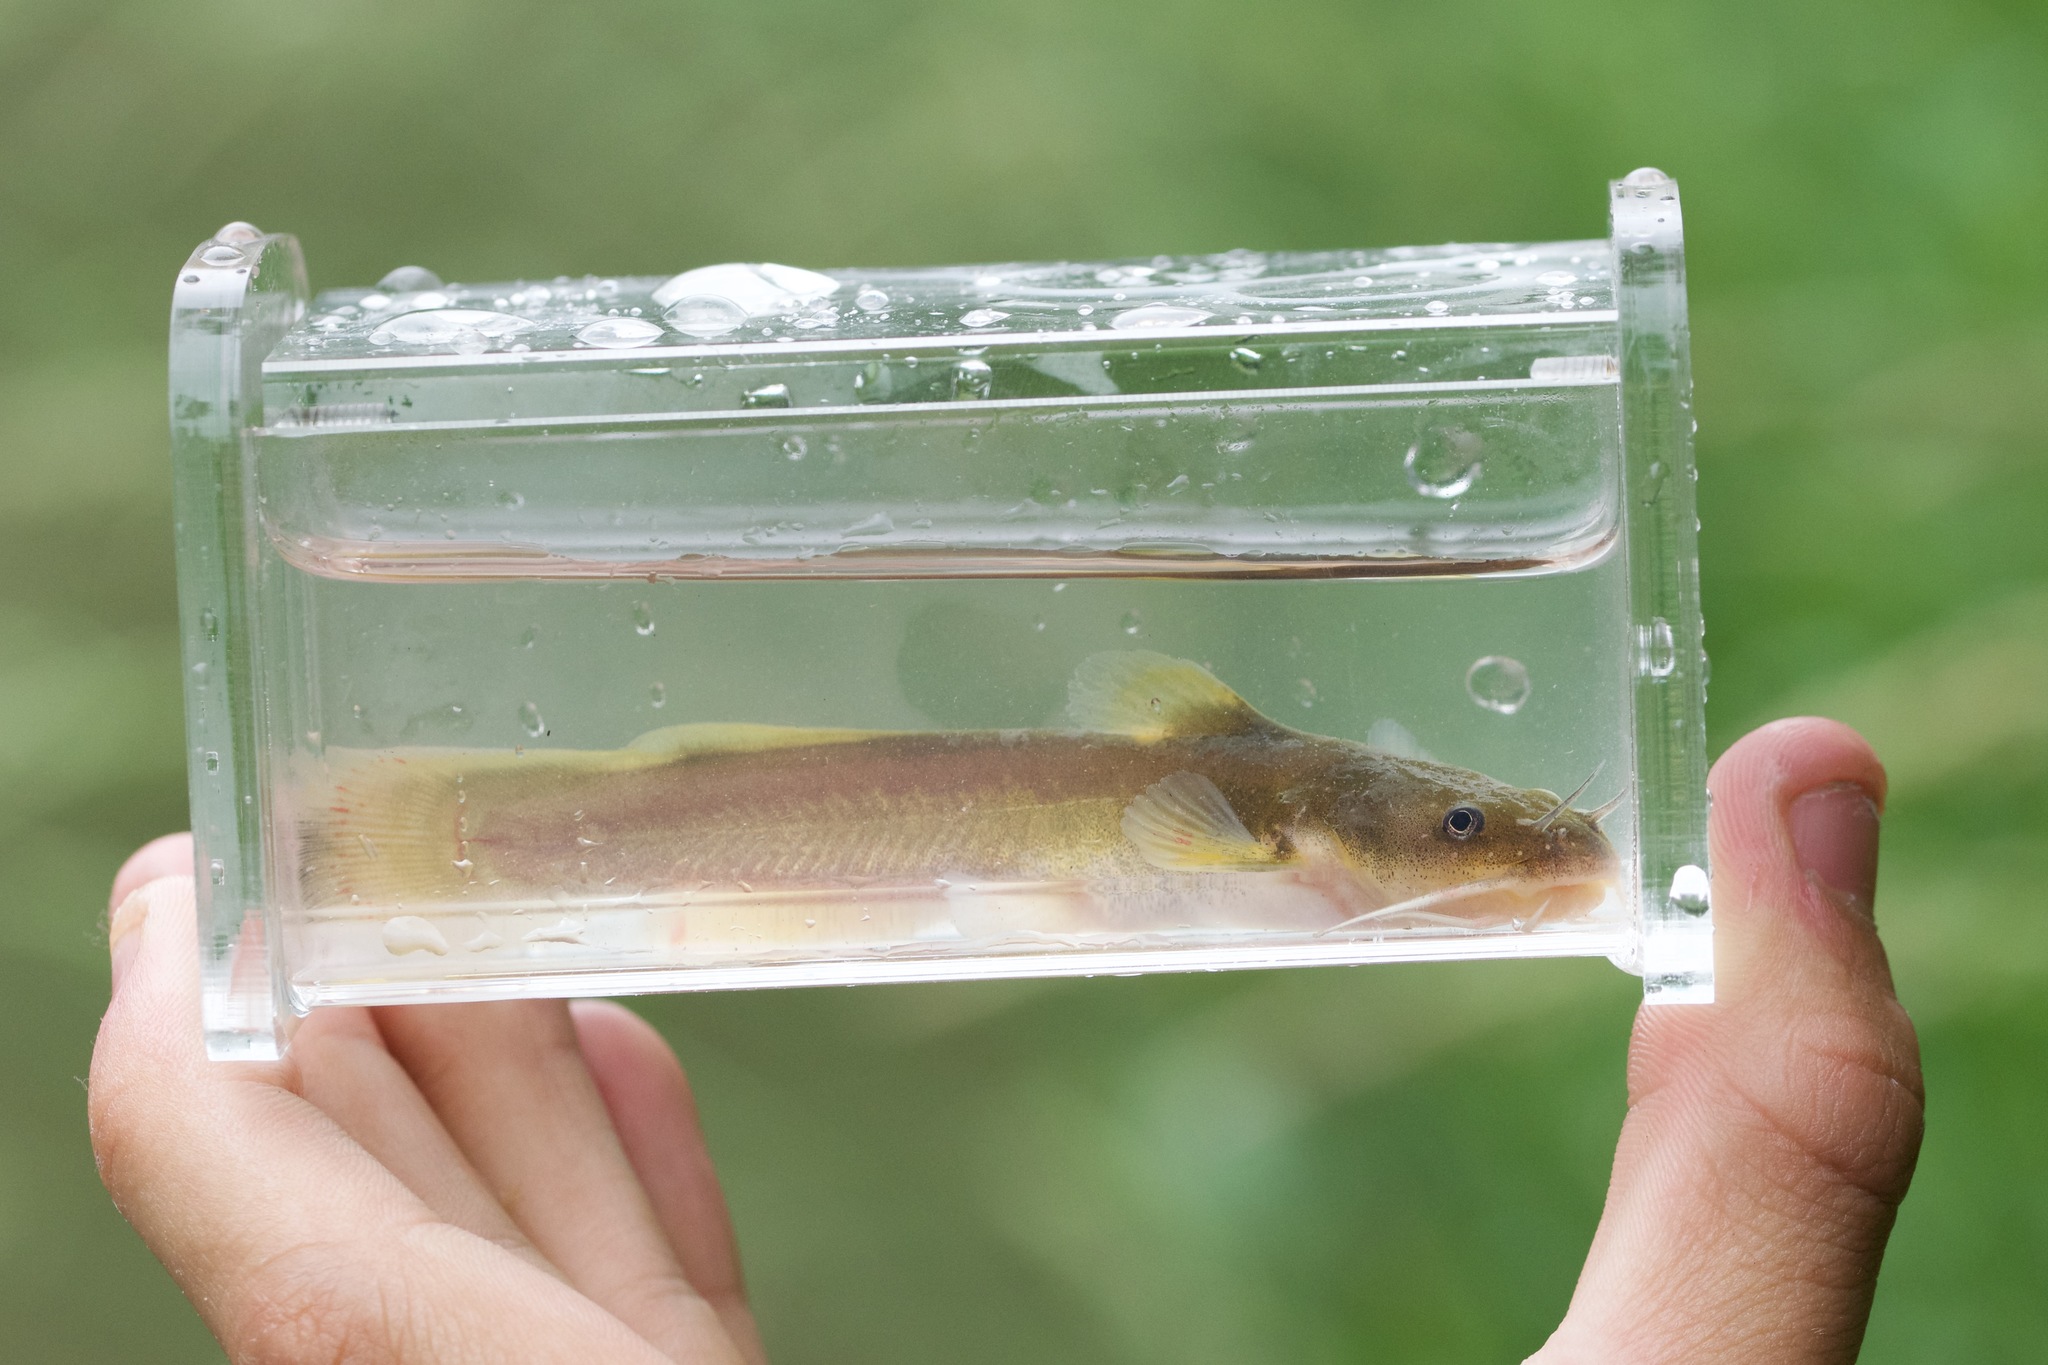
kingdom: Animalia
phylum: Chordata
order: Siluriformes
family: Ictaluridae
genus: Noturus
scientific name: Noturus flavus
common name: Stonecat
